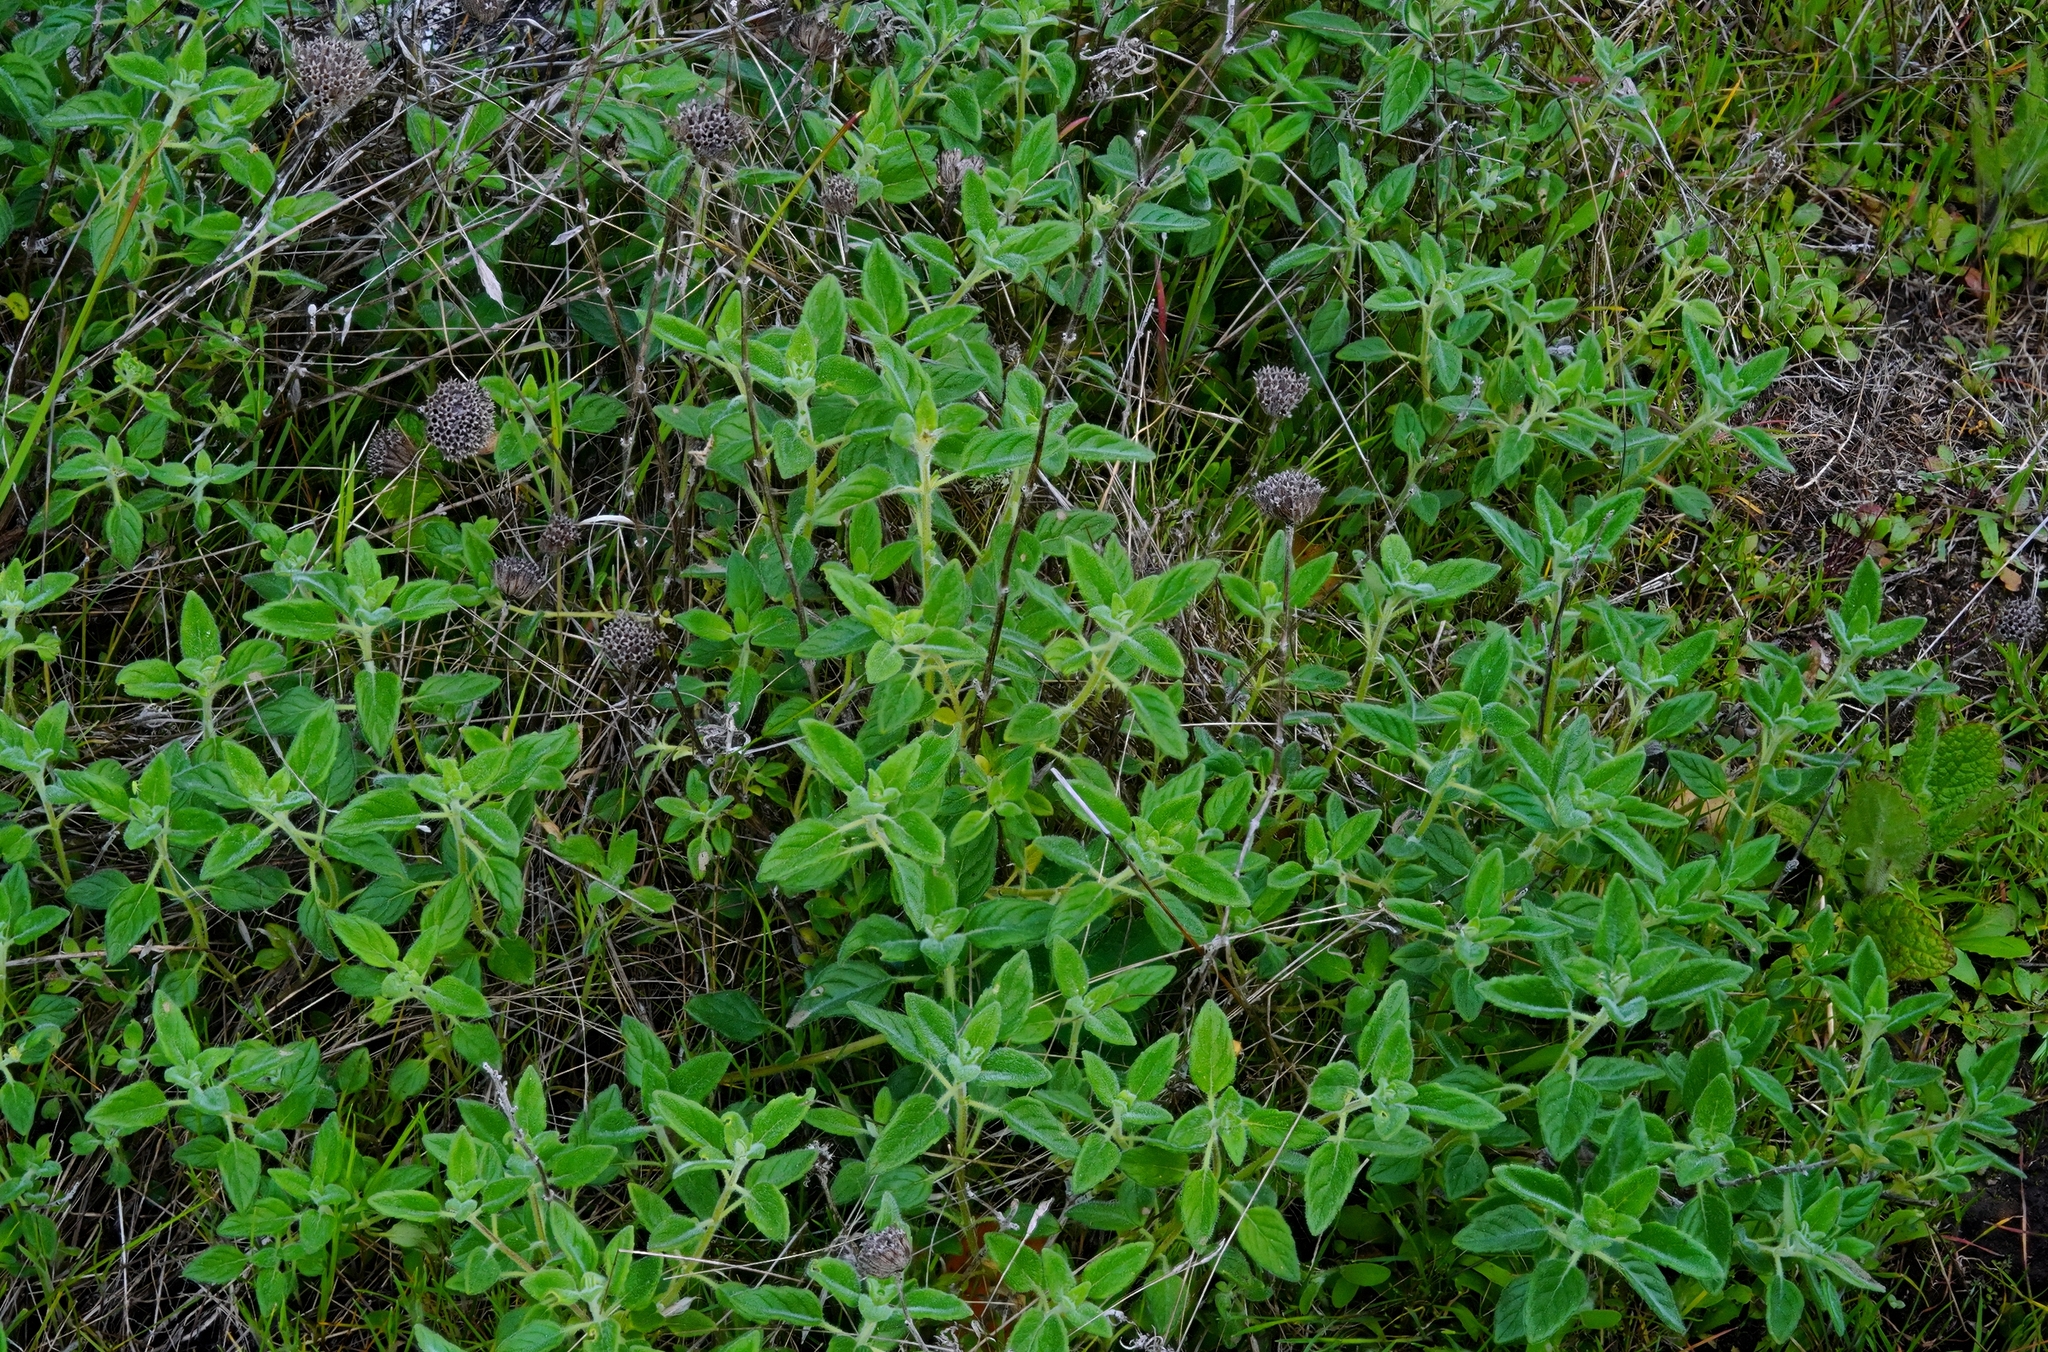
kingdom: Plantae
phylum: Tracheophyta
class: Magnoliopsida
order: Lamiales
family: Lamiaceae
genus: Monardella
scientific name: Monardella odoratissima
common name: Pacific monardella
